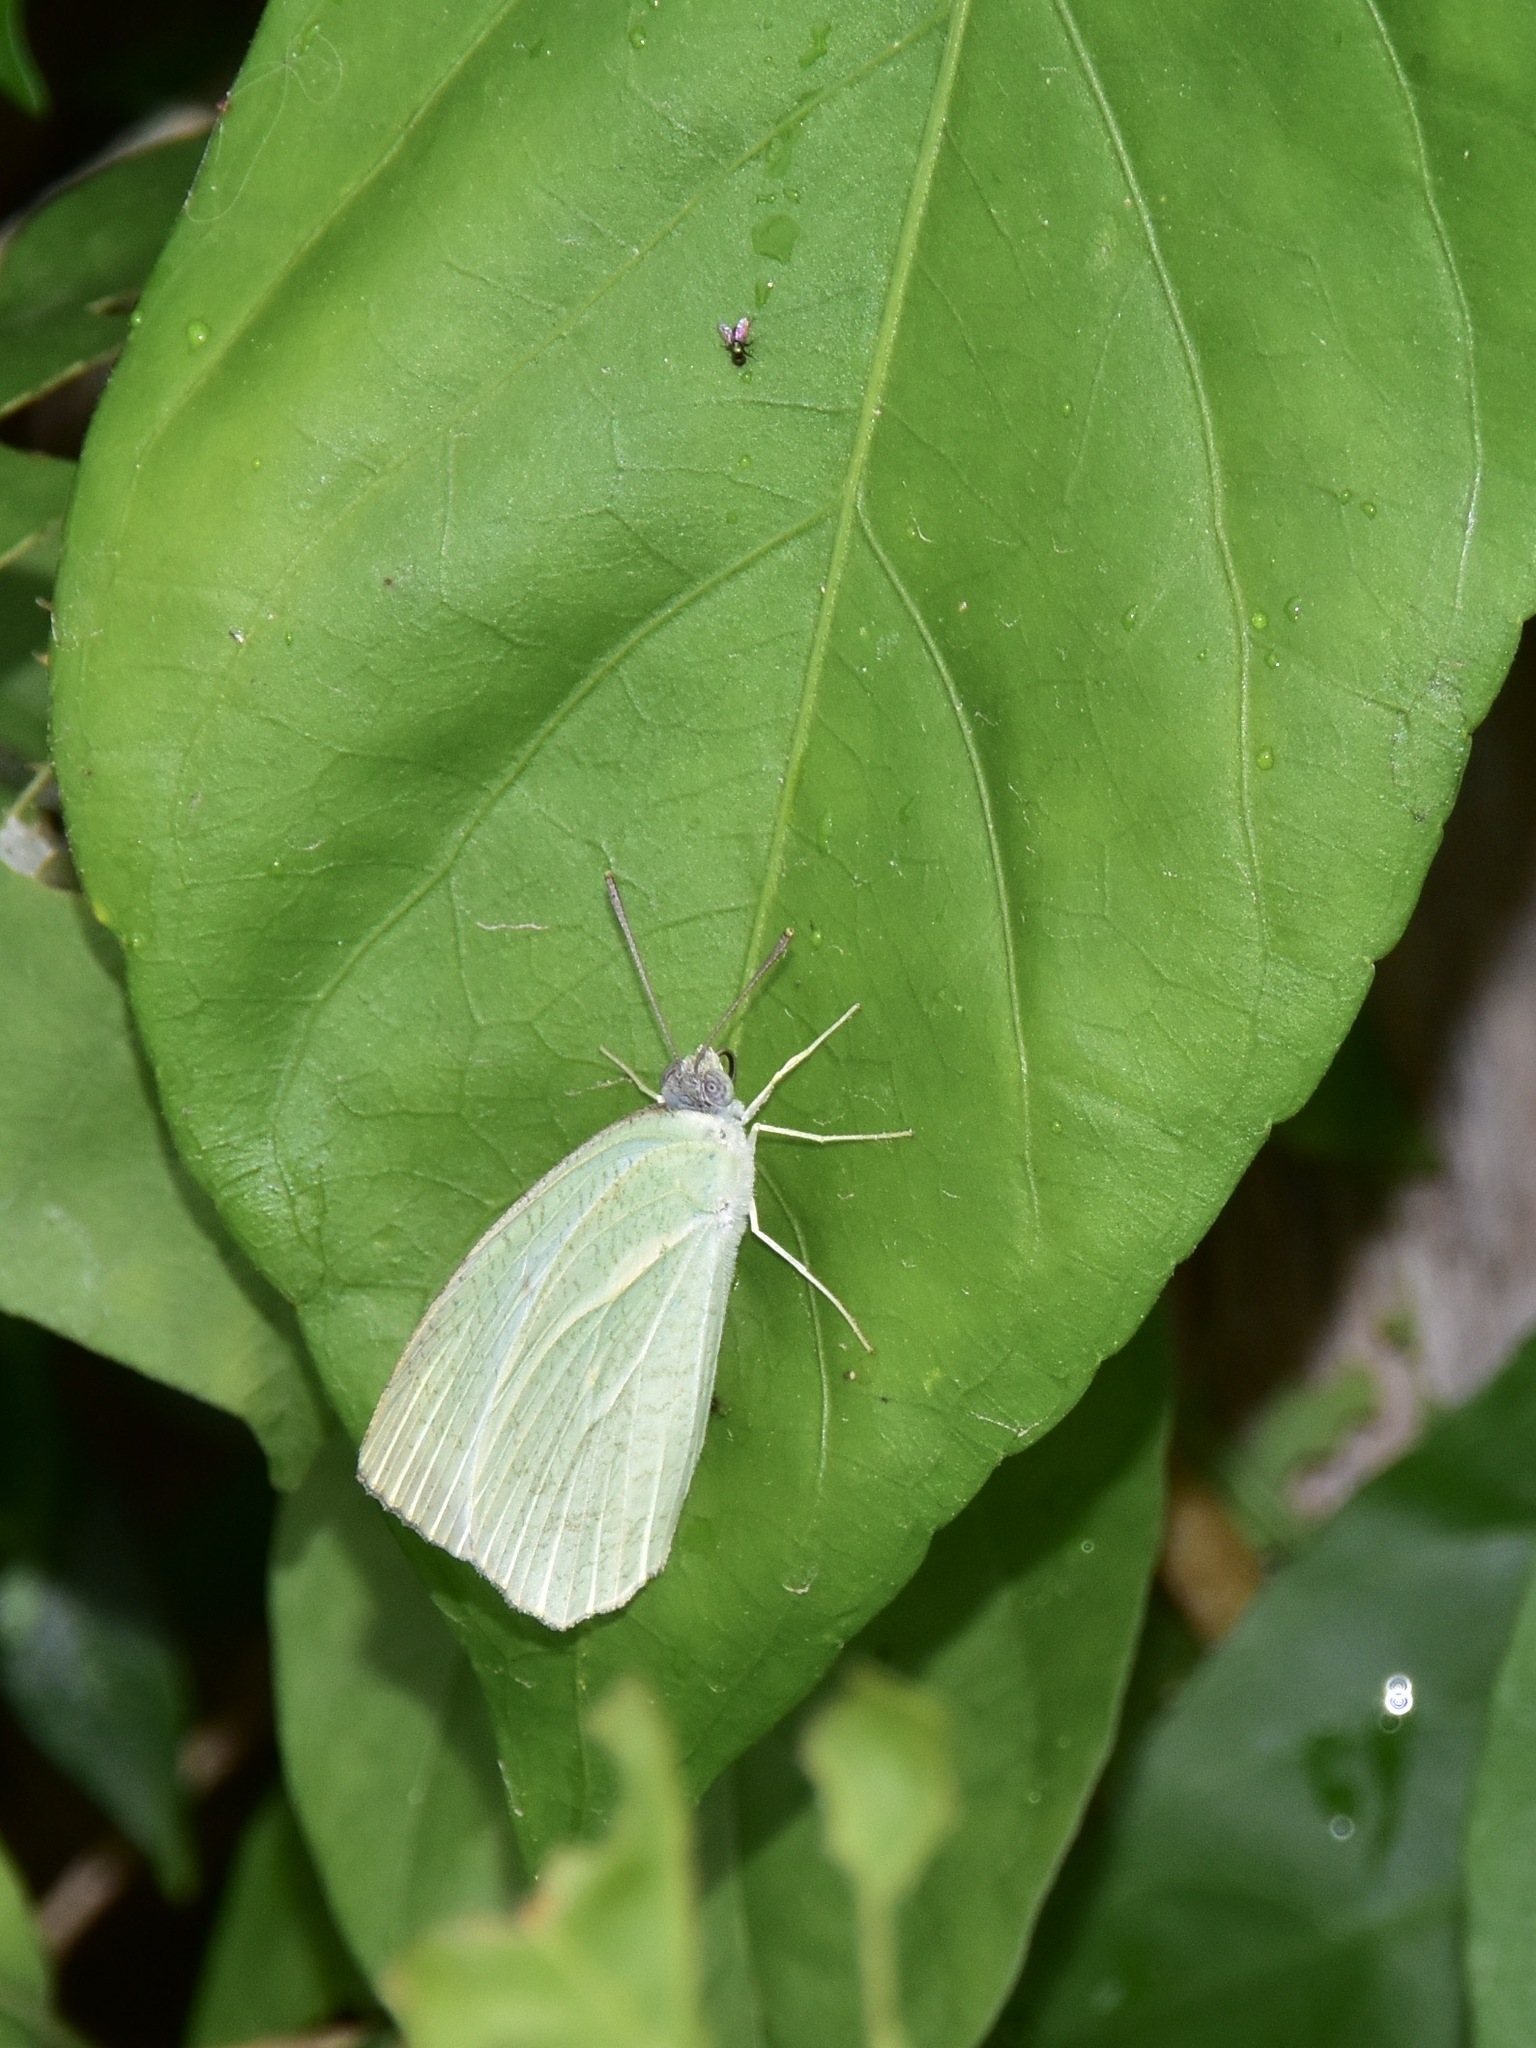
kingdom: Animalia
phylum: Arthropoda
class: Insecta
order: Lepidoptera
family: Pieridae
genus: Catopsilia
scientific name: Catopsilia pyranthe
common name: Mottled emigrant
